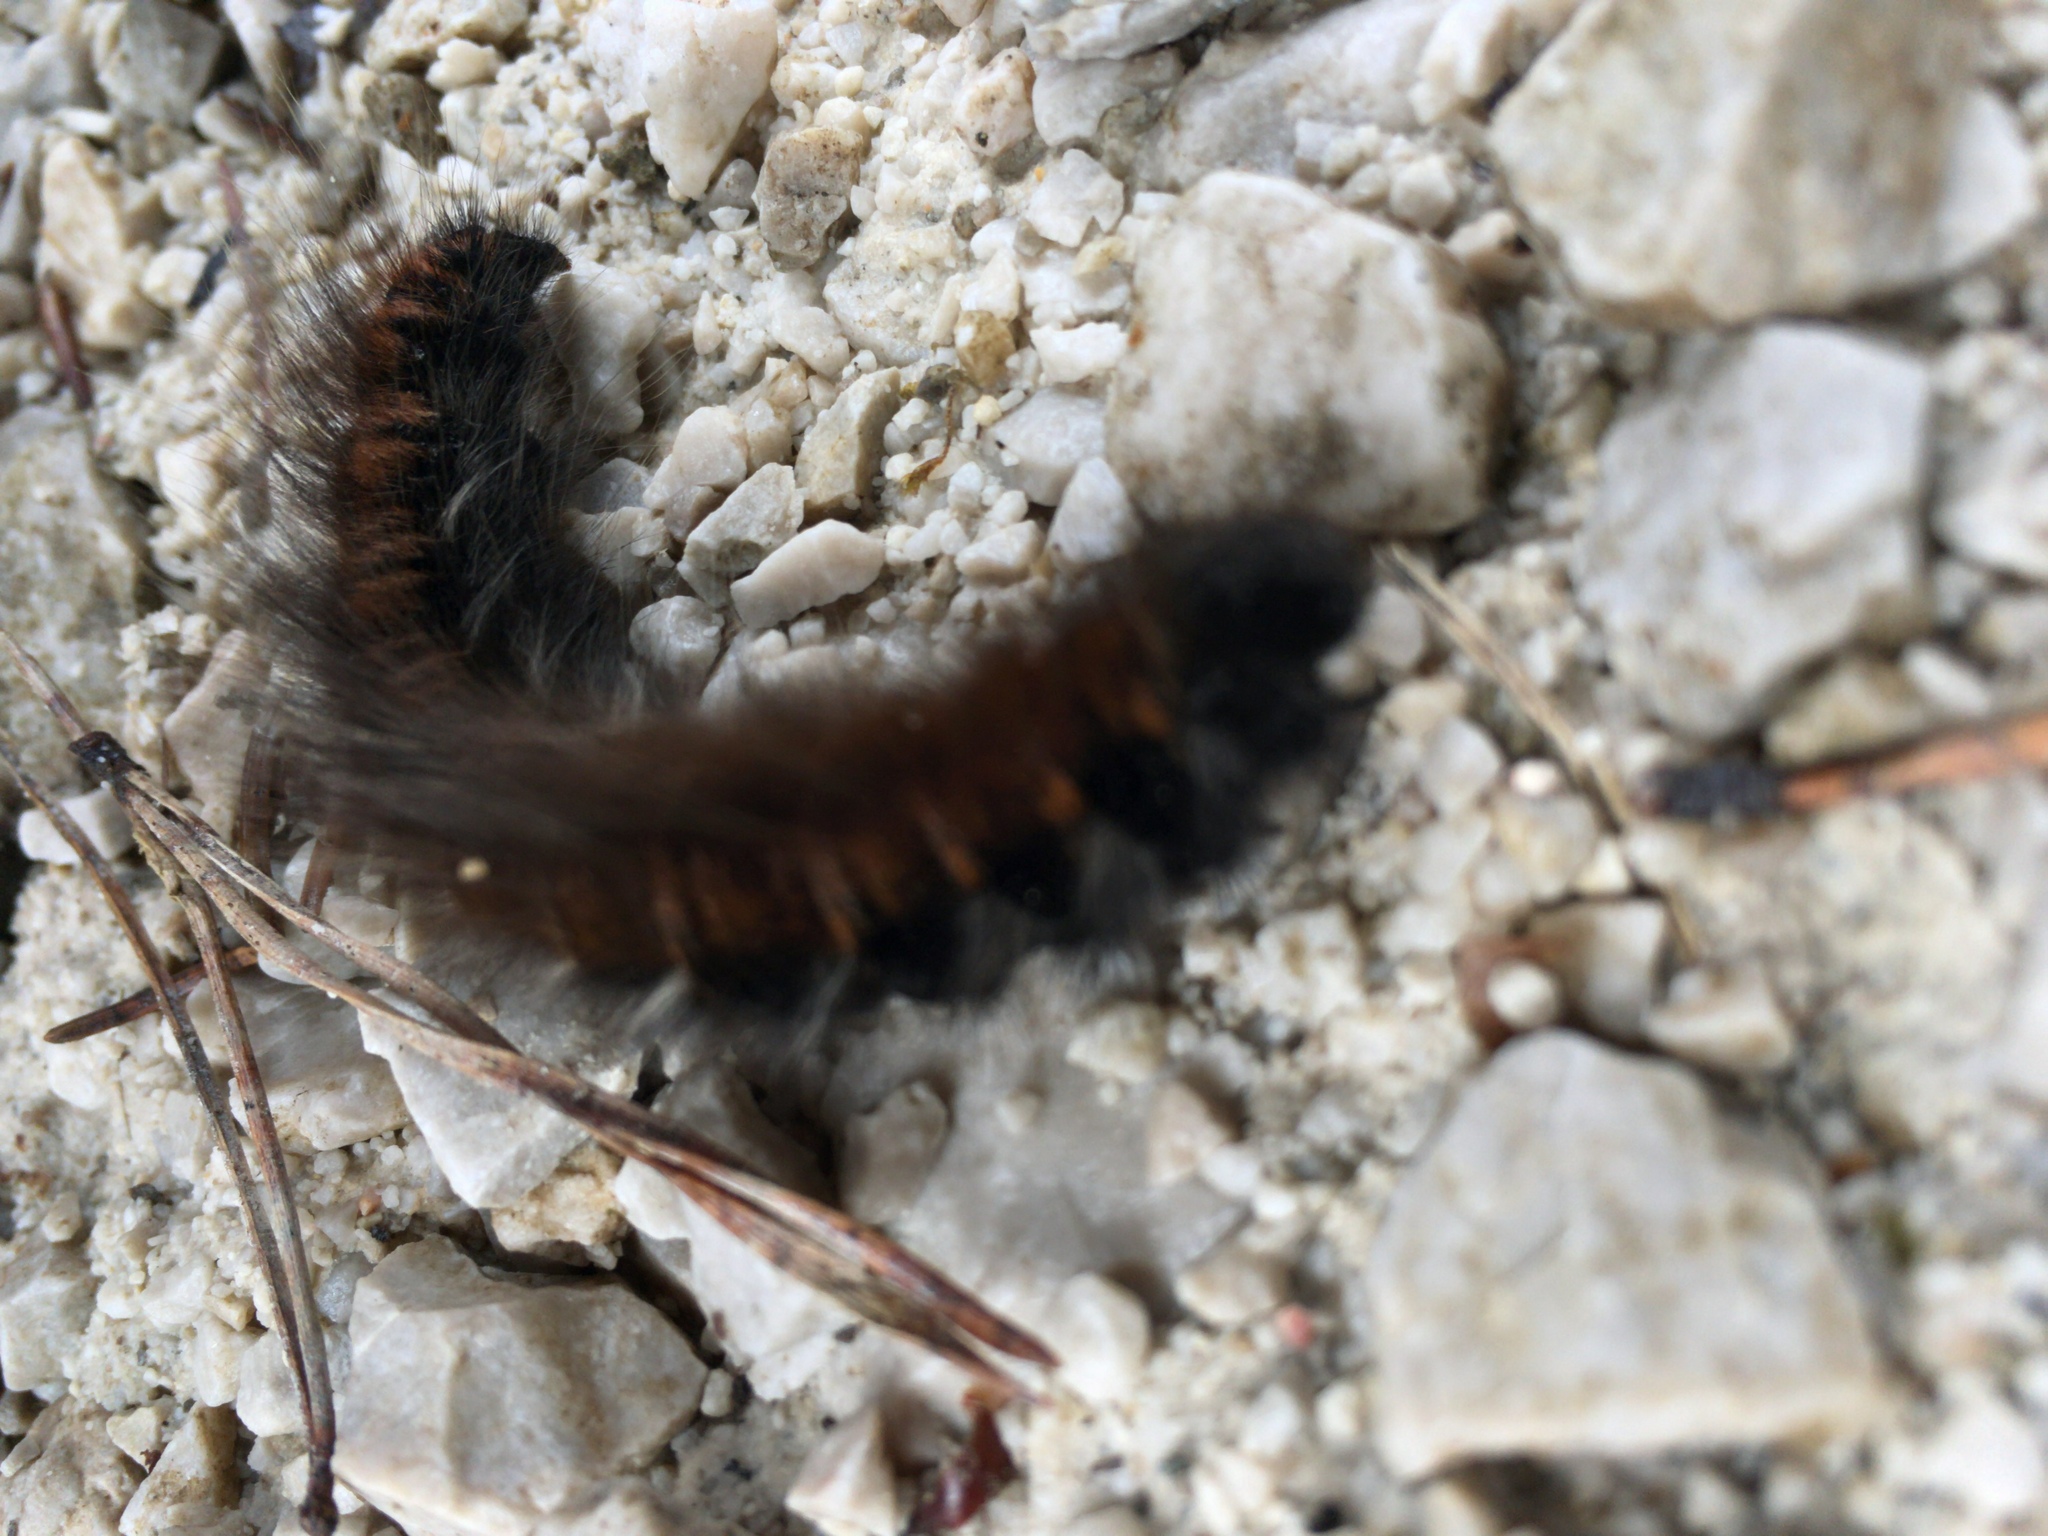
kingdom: Animalia
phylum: Arthropoda
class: Insecta
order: Lepidoptera
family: Lasiocampidae
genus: Macrothylacia
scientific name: Macrothylacia rubi
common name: Fox moth
